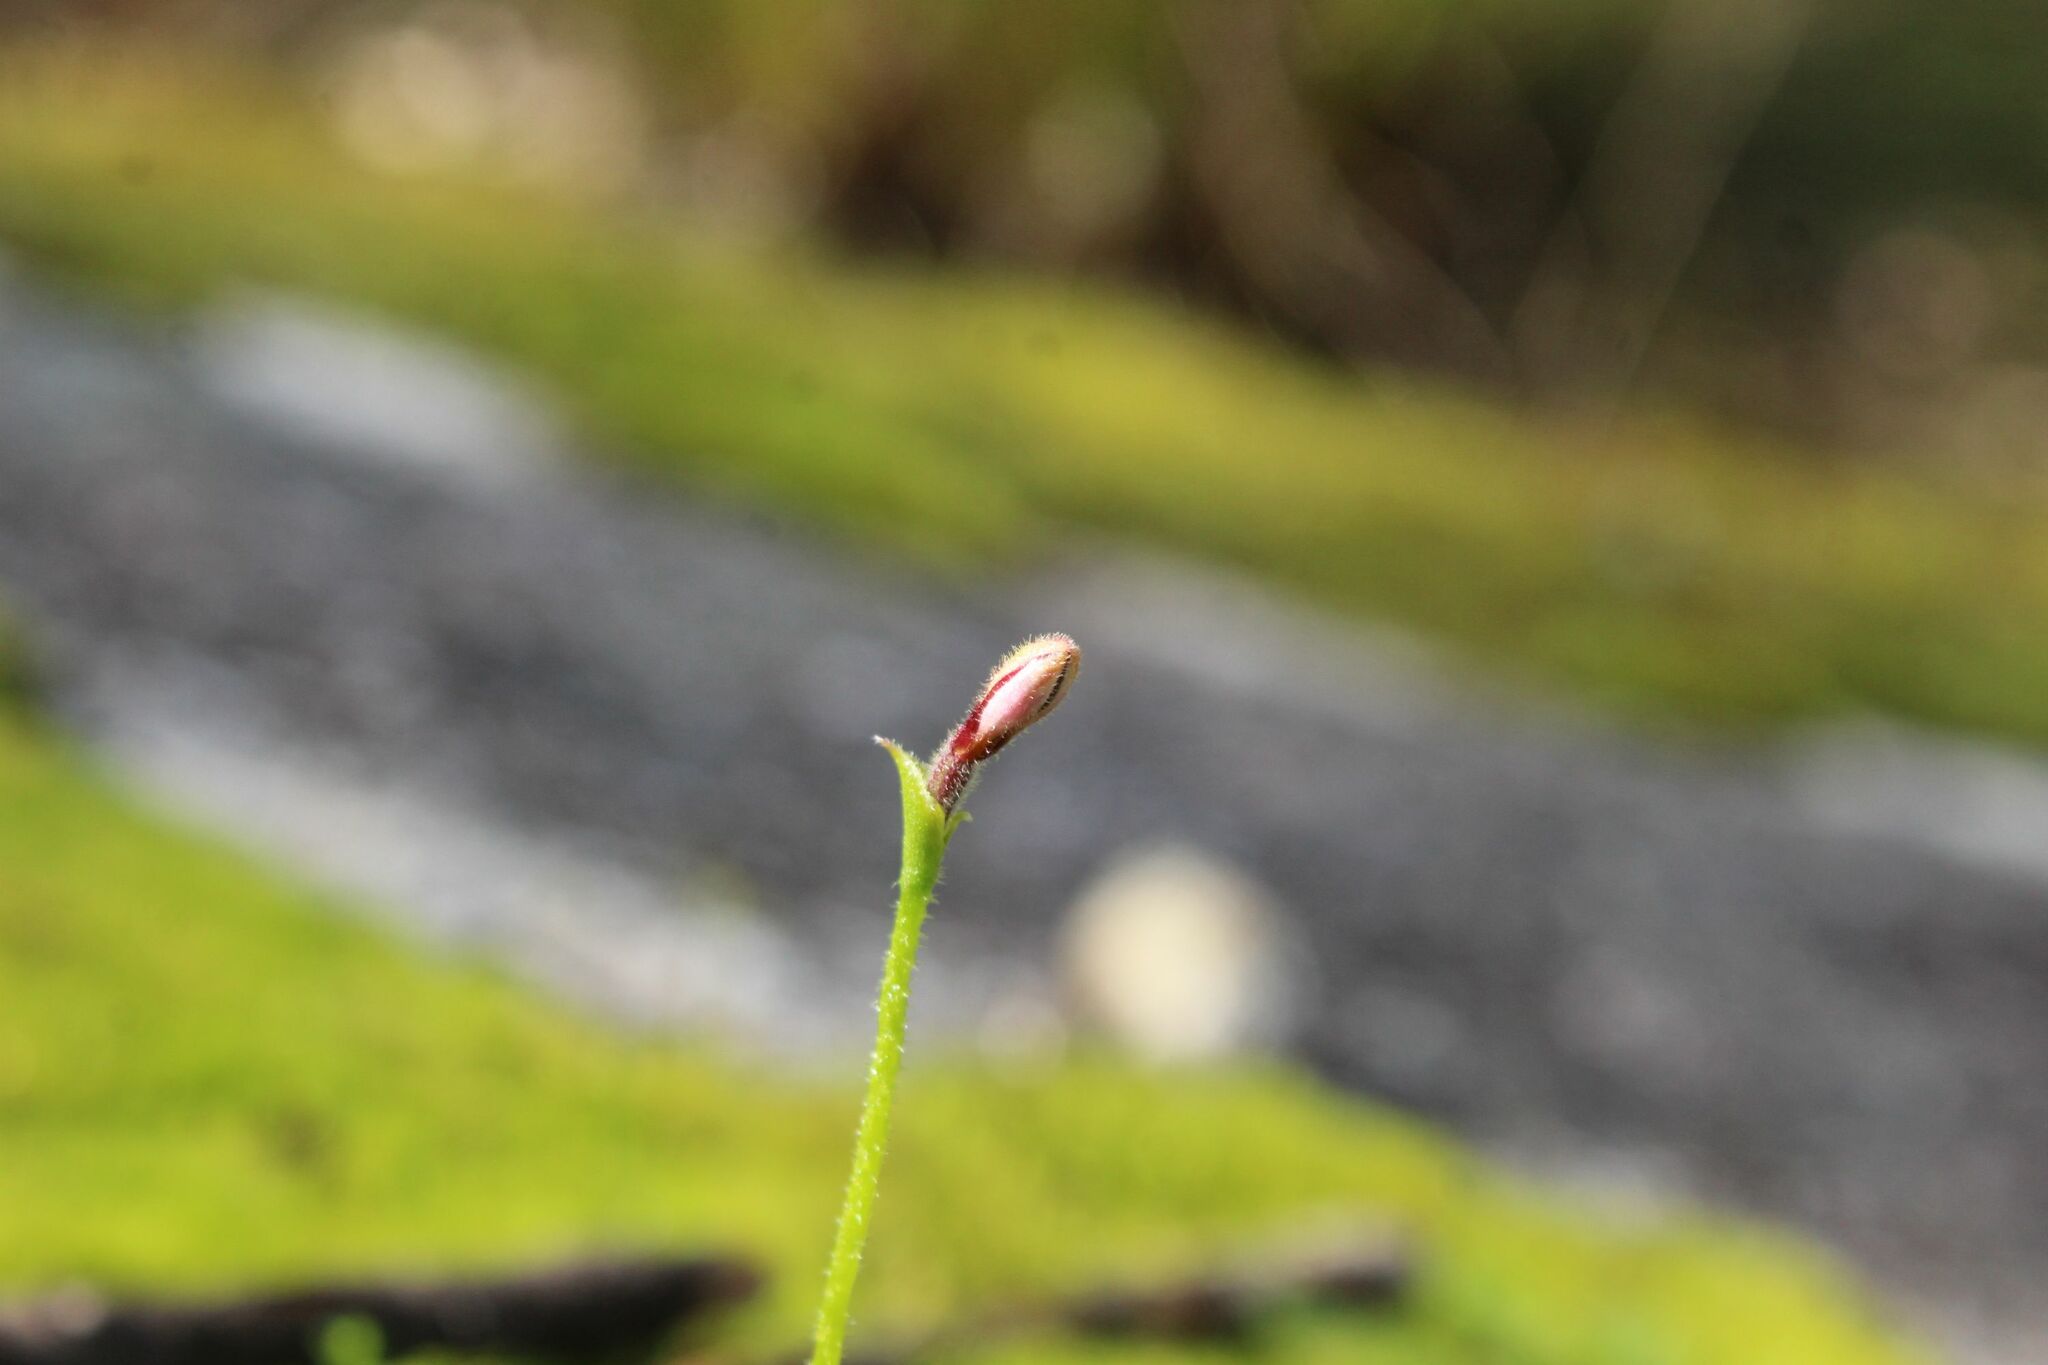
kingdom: Plantae
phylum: Tracheophyta
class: Liliopsida
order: Asparagales
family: Orchidaceae
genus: Eriochilus
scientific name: Eriochilus scaber
